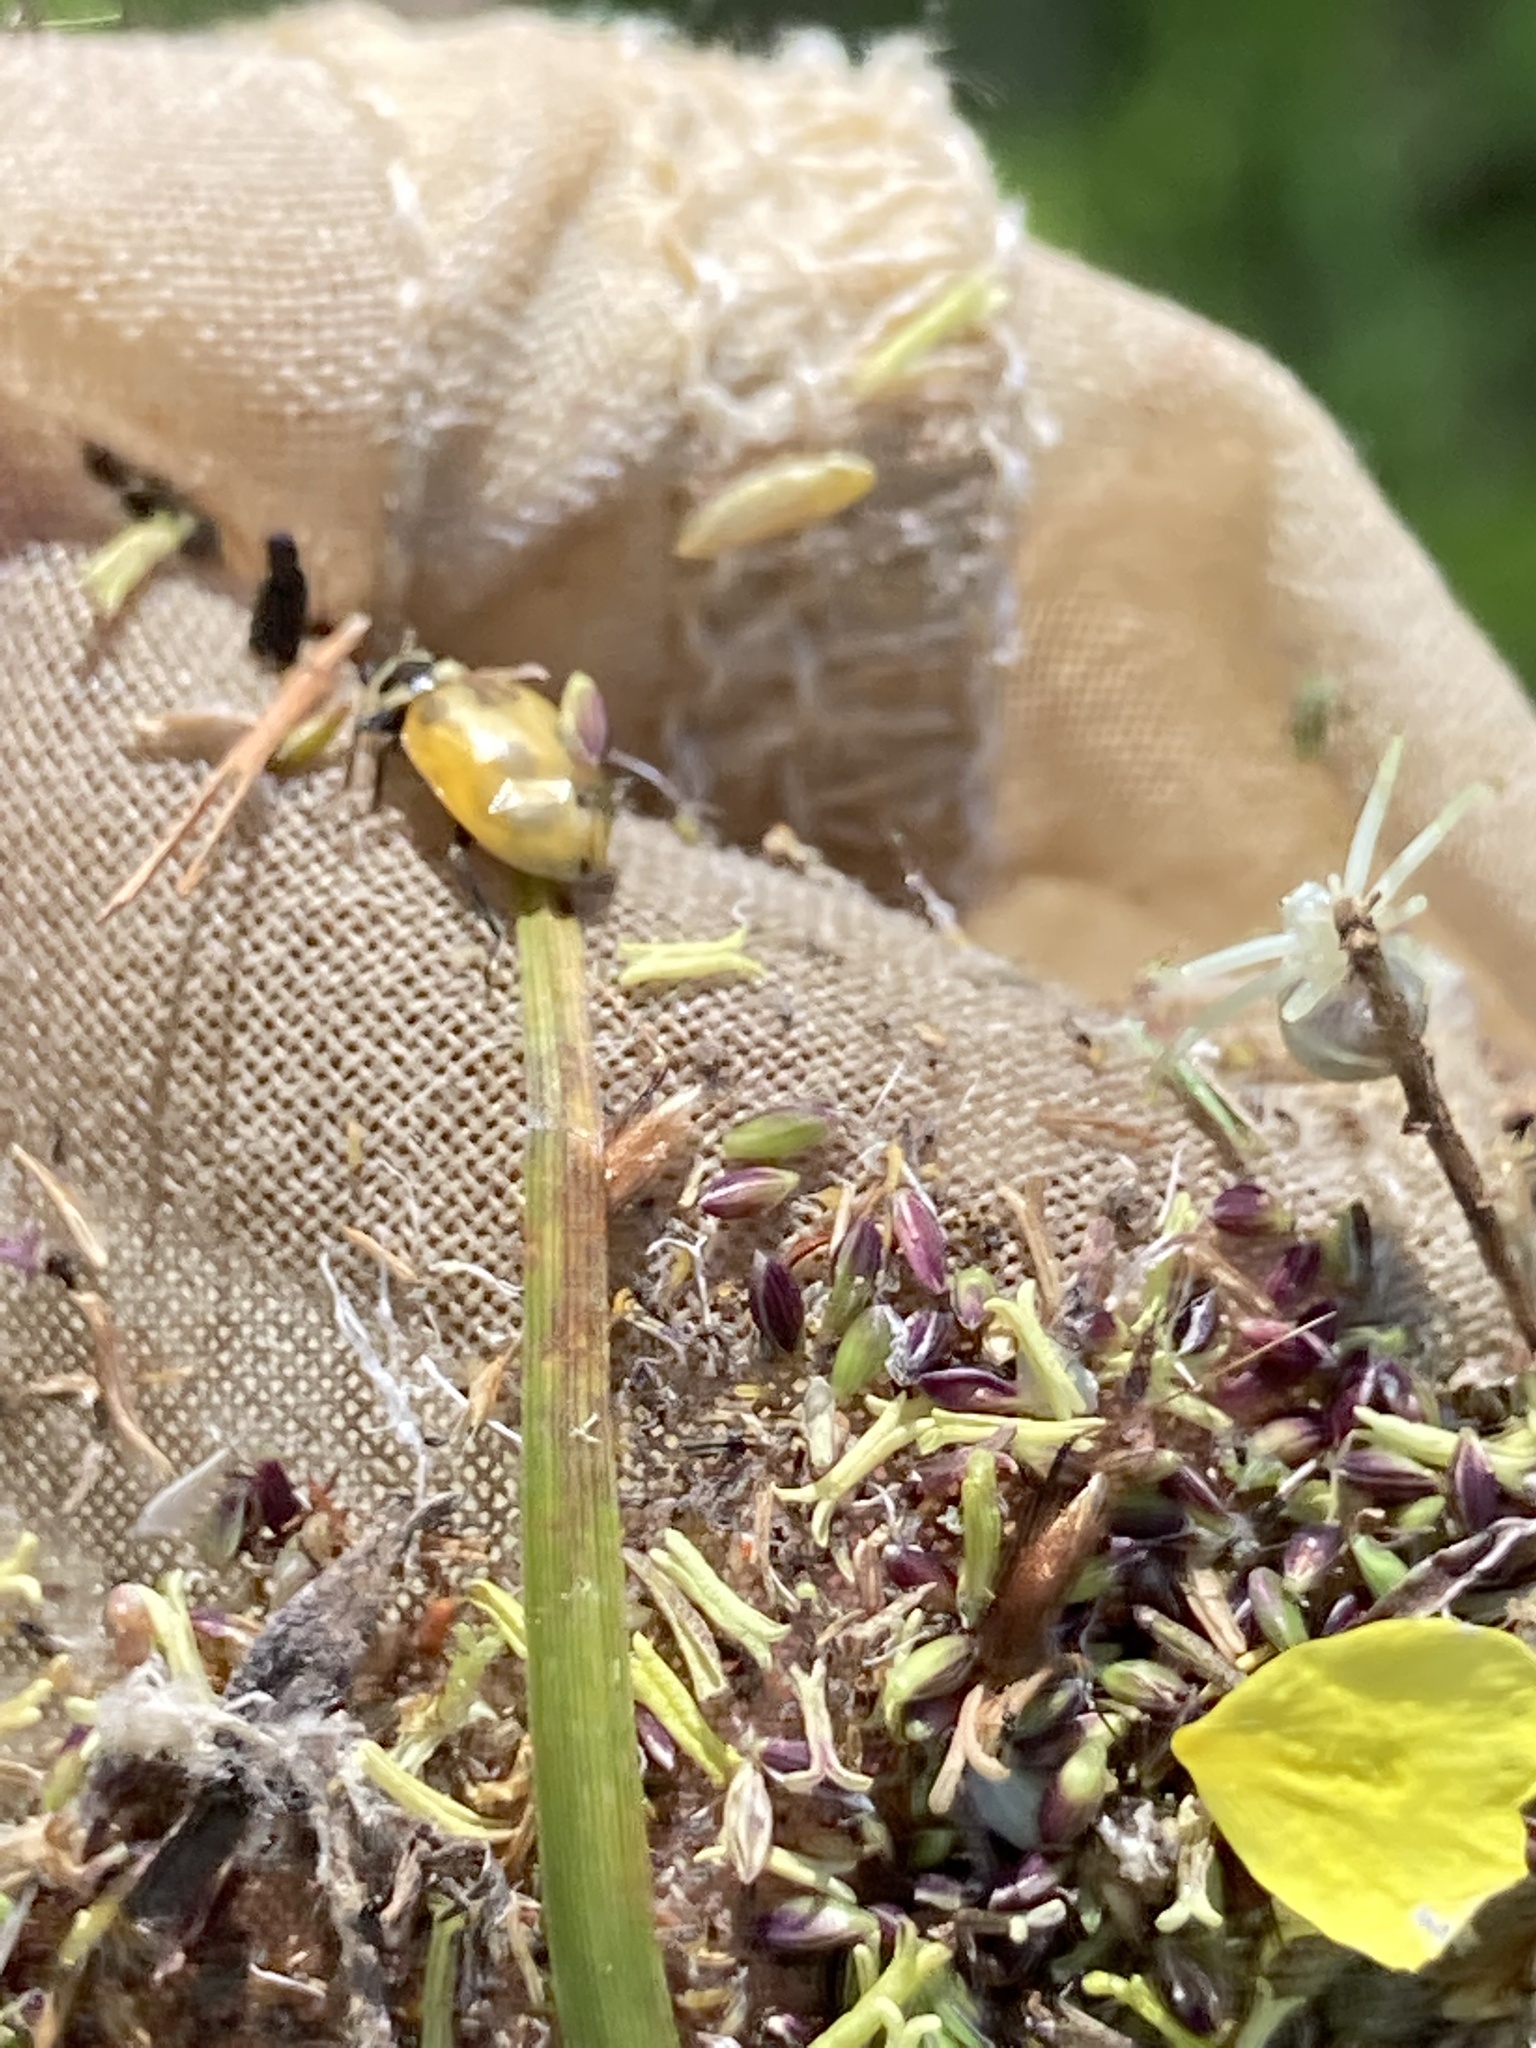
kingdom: Animalia
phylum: Arthropoda
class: Insecta
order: Coleoptera
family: Coccinellidae
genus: Hippodamia
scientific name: Hippodamia parenthesis
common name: Parenthesis lady beetle
